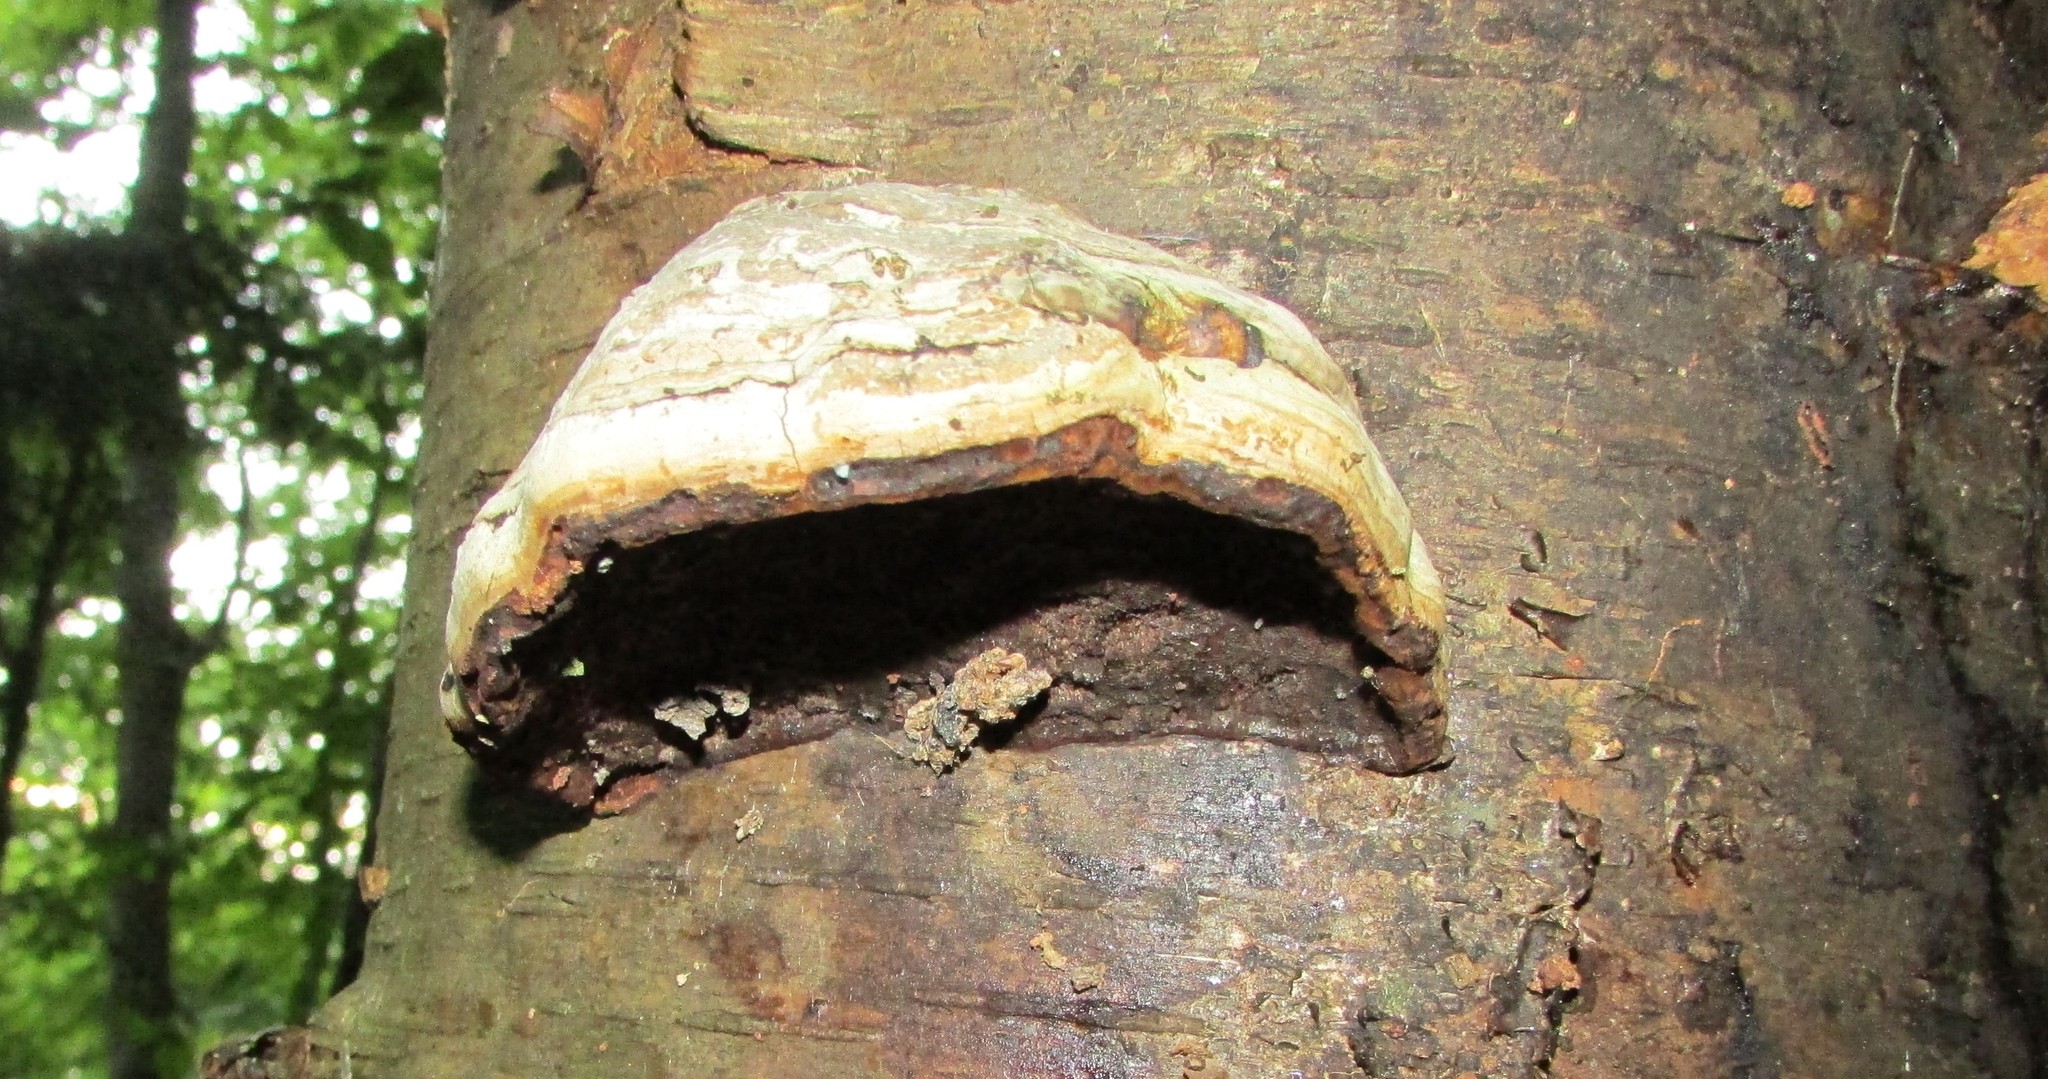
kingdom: Fungi
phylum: Basidiomycota
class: Agaricomycetes
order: Polyporales
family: Polyporaceae
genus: Fomes
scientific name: Fomes fomentarius
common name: Hoof fungus
